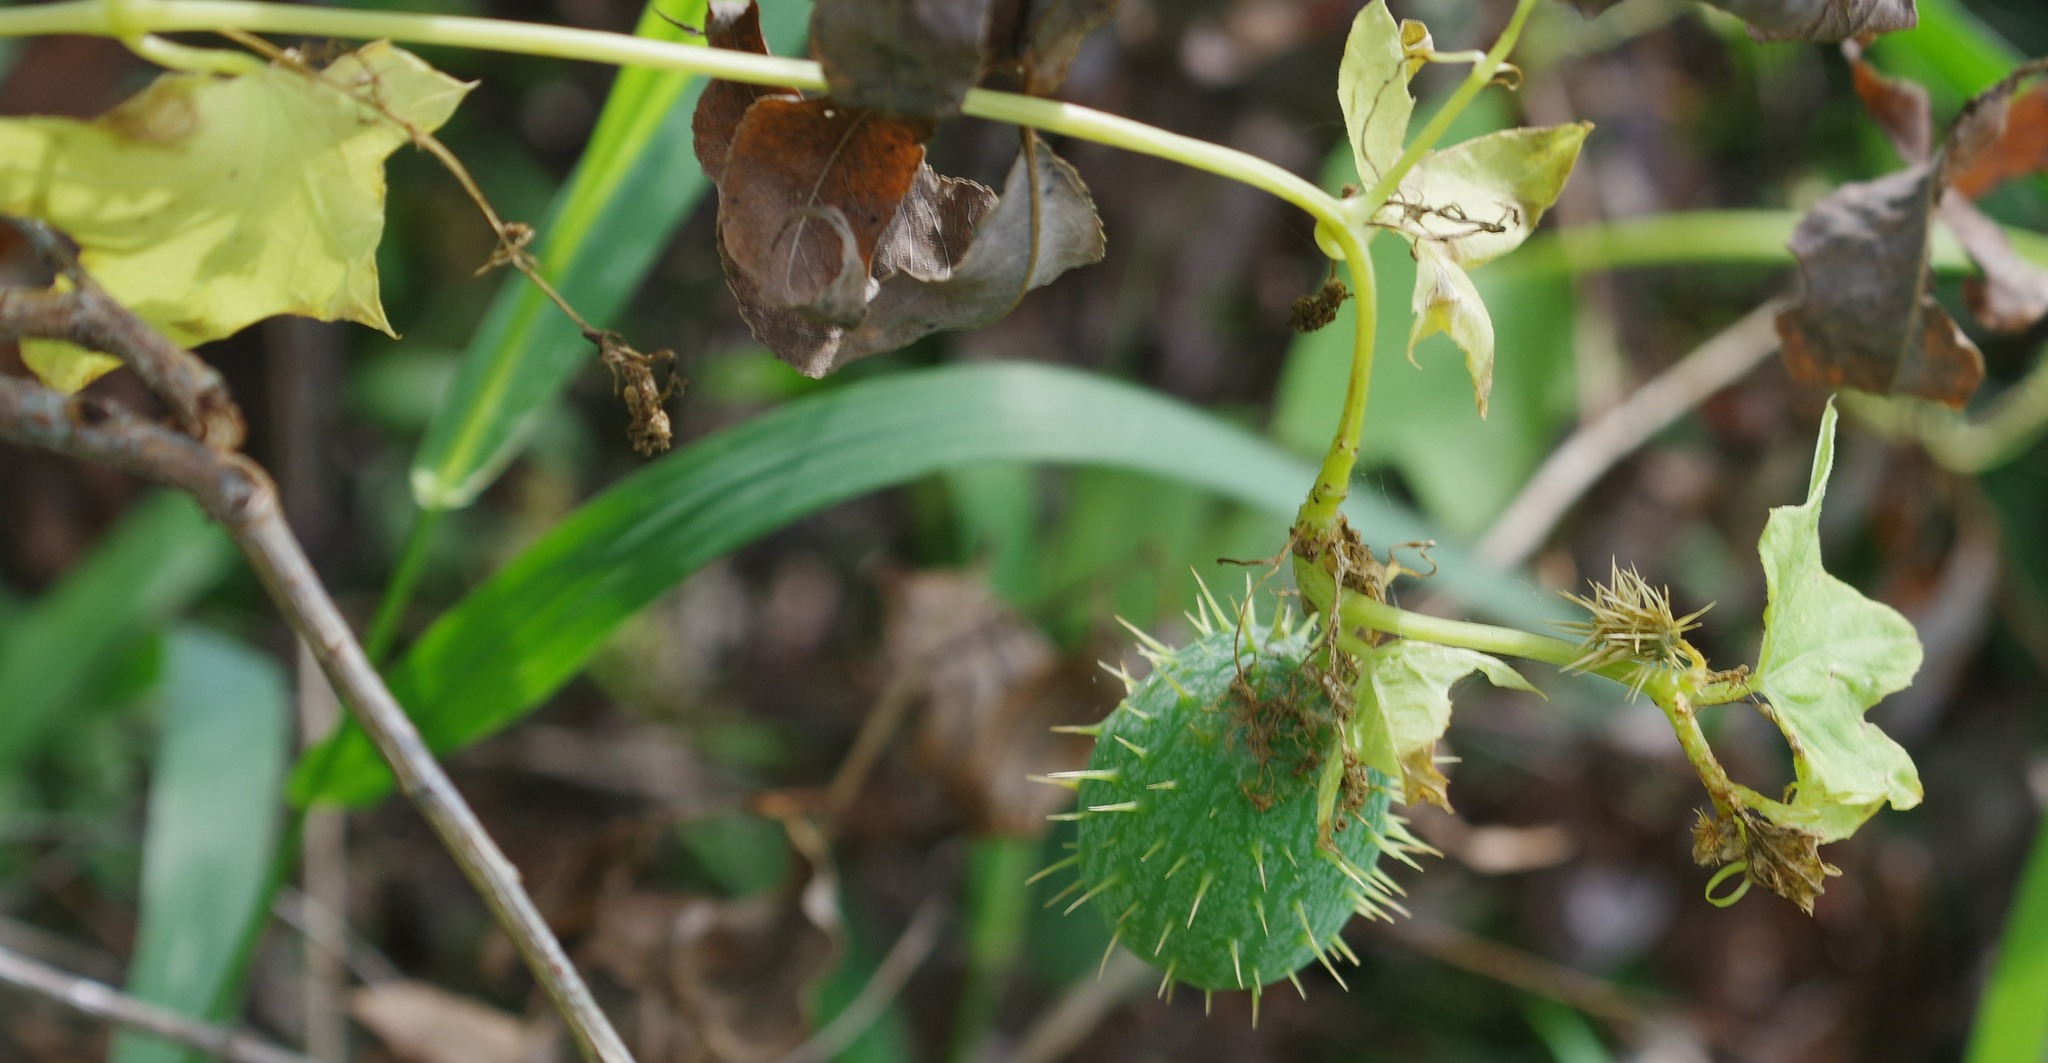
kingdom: Plantae
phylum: Tracheophyta
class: Magnoliopsida
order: Cucurbitales
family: Cucurbitaceae
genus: Echinocystis
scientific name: Echinocystis lobata
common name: Wild cucumber
